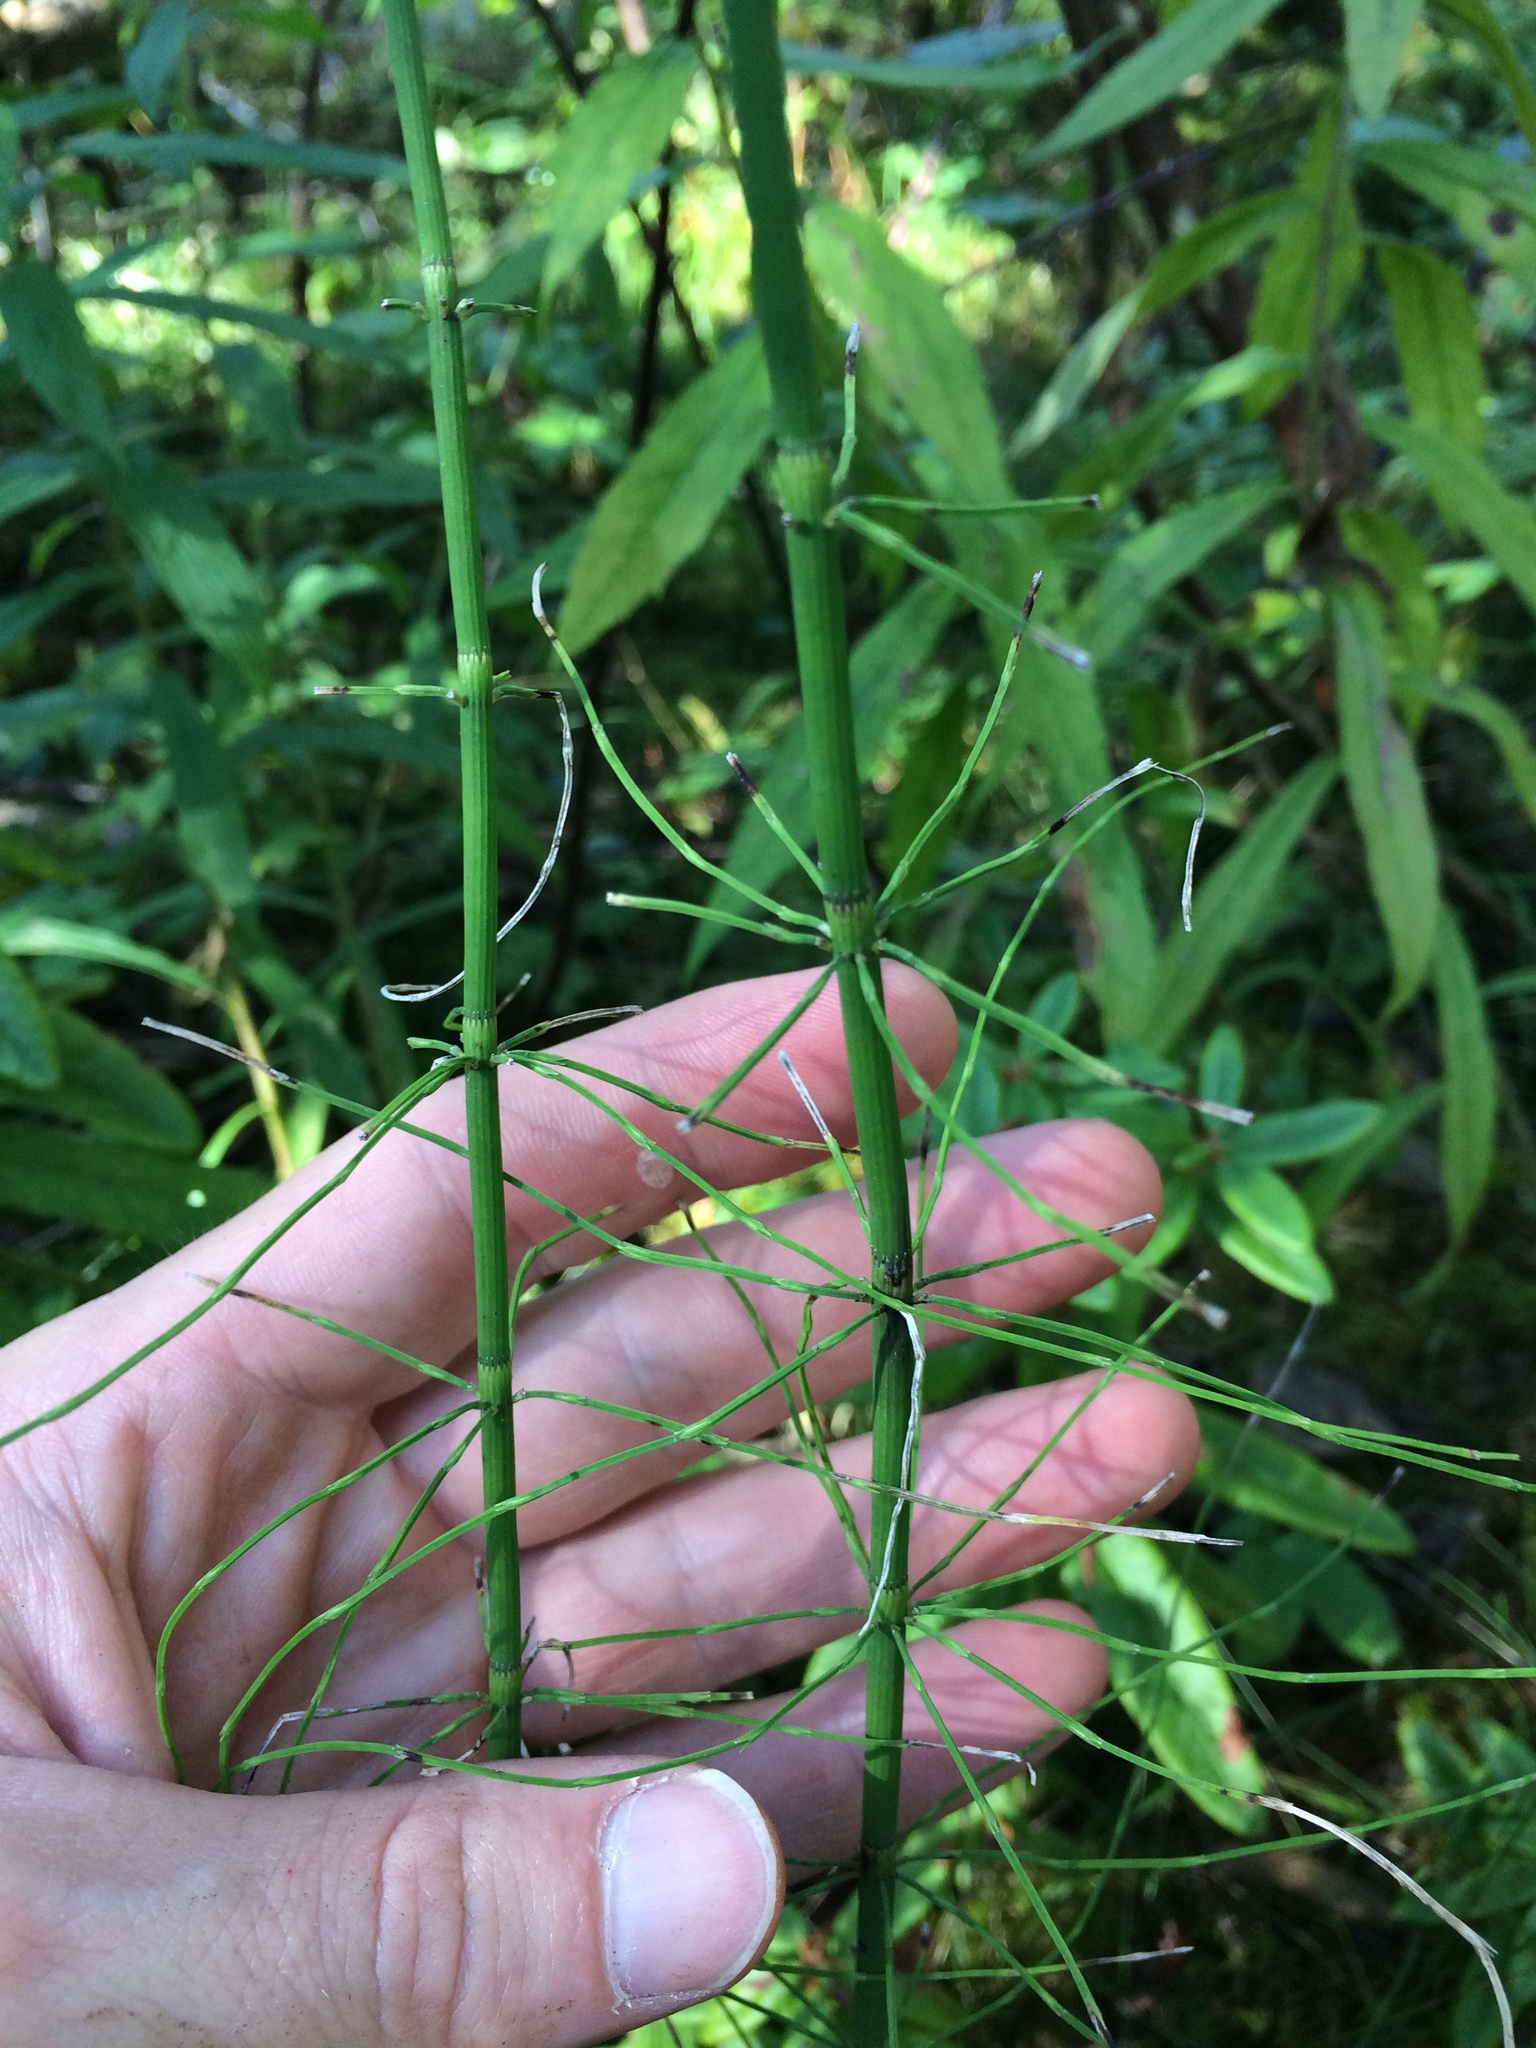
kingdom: Plantae
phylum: Tracheophyta
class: Polypodiopsida
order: Equisetales
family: Equisetaceae
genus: Equisetum
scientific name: Equisetum fluviatile
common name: Water horsetail
